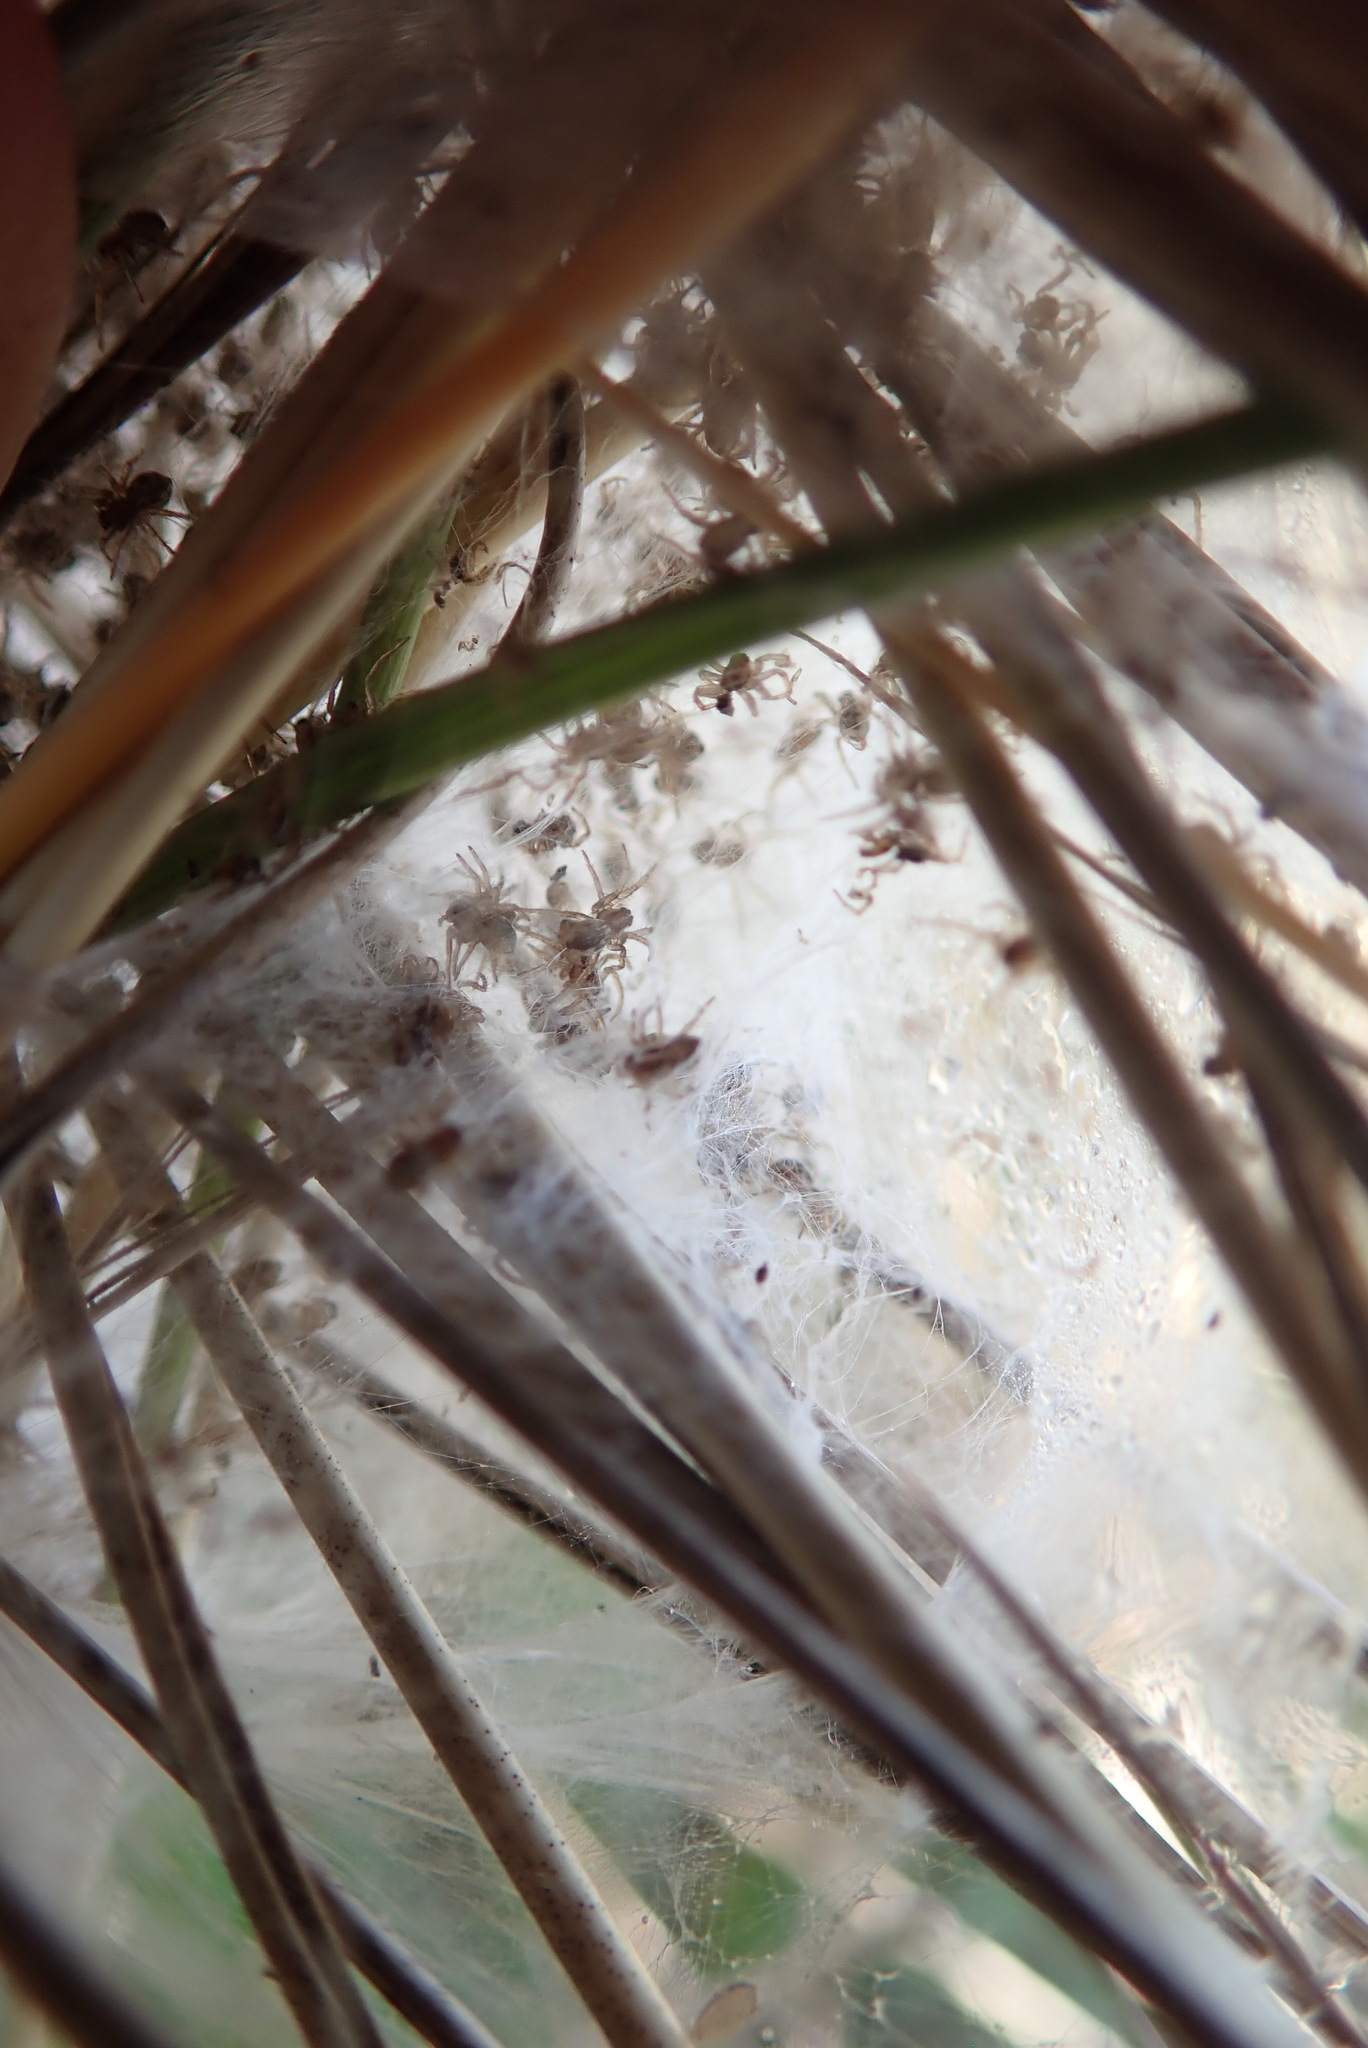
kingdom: Animalia
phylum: Arthropoda
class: Arachnida
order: Araneae
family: Pisauridae
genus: Dolomedes
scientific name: Dolomedes minor
